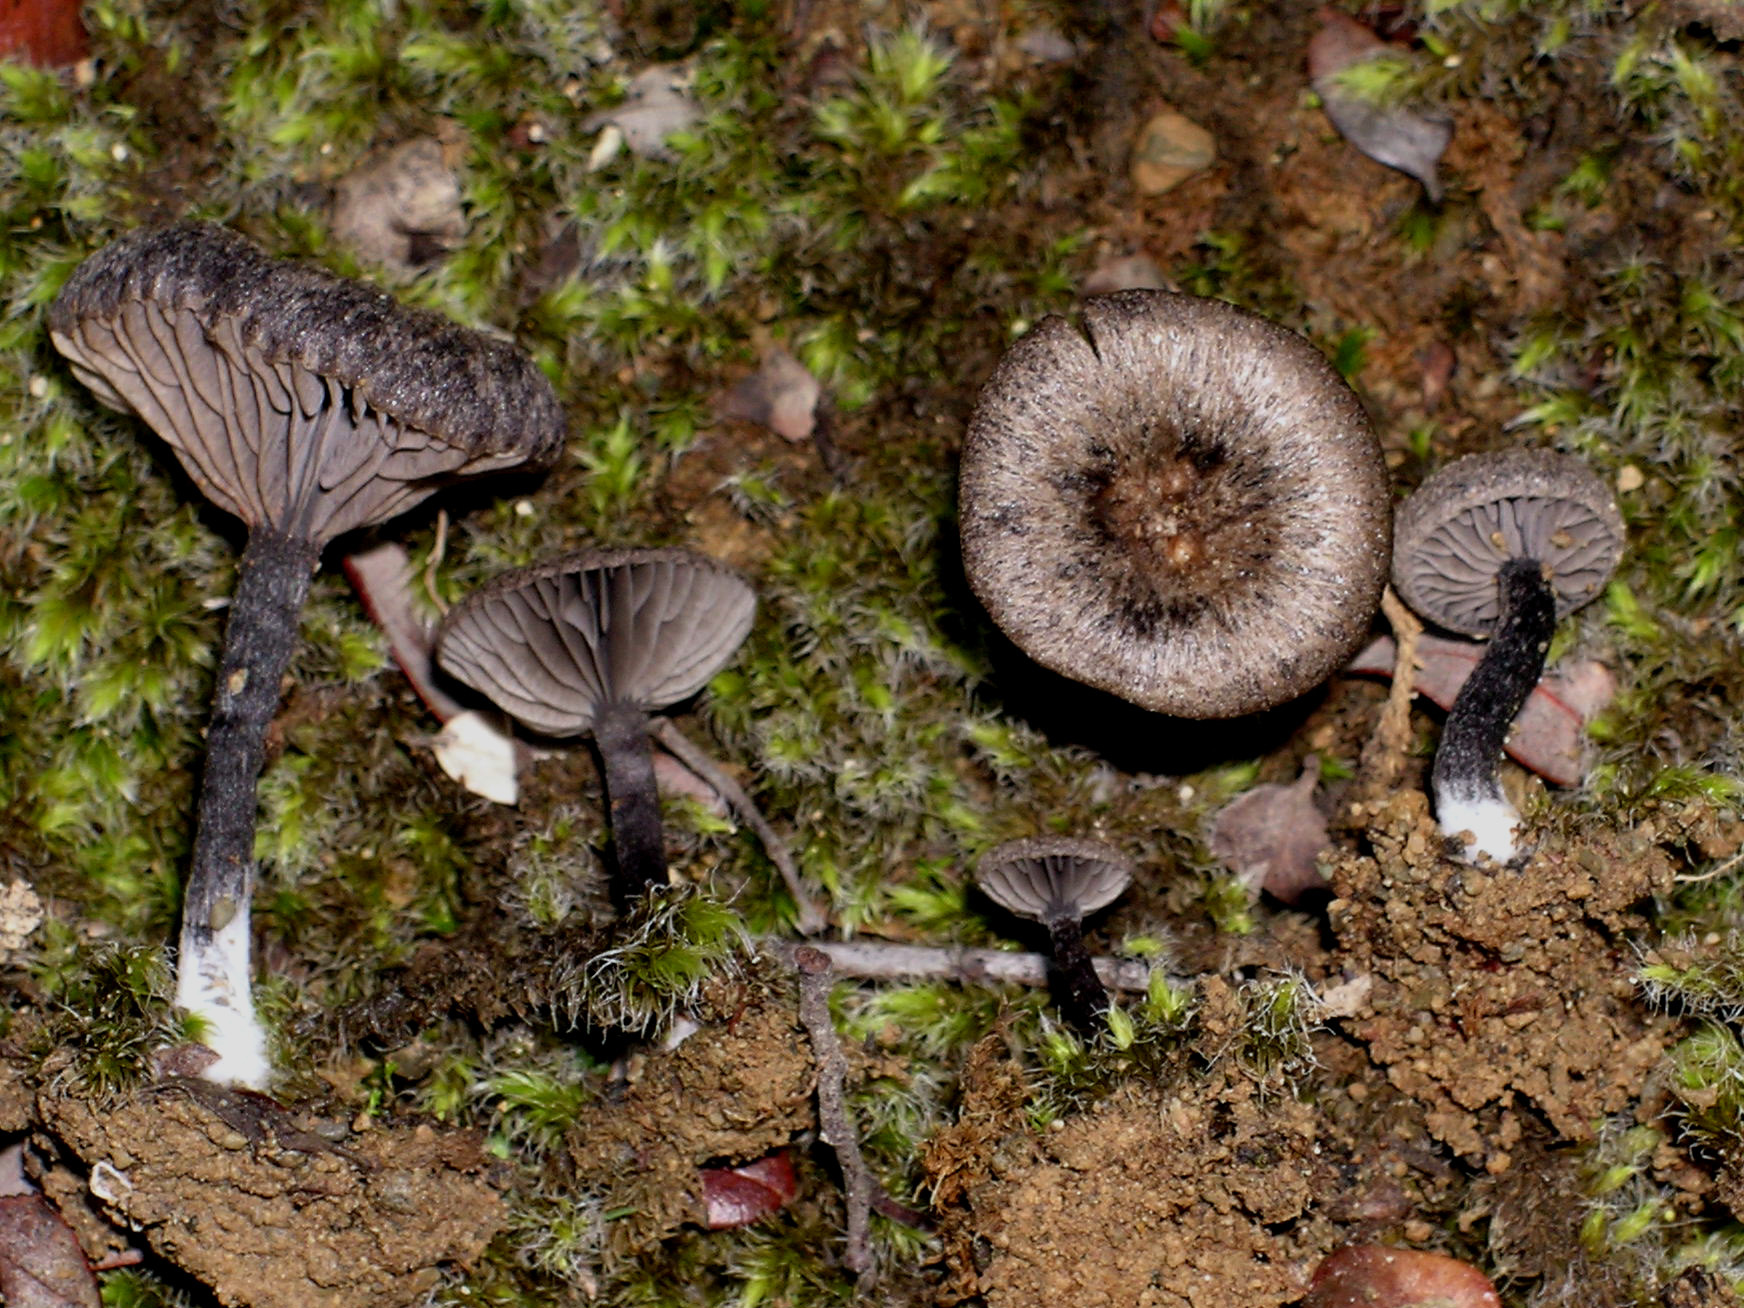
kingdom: Fungi
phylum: Basidiomycota
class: Agaricomycetes
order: Agaricales
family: Entolomataceae
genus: Entoloma
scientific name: Entoloma crinitum
